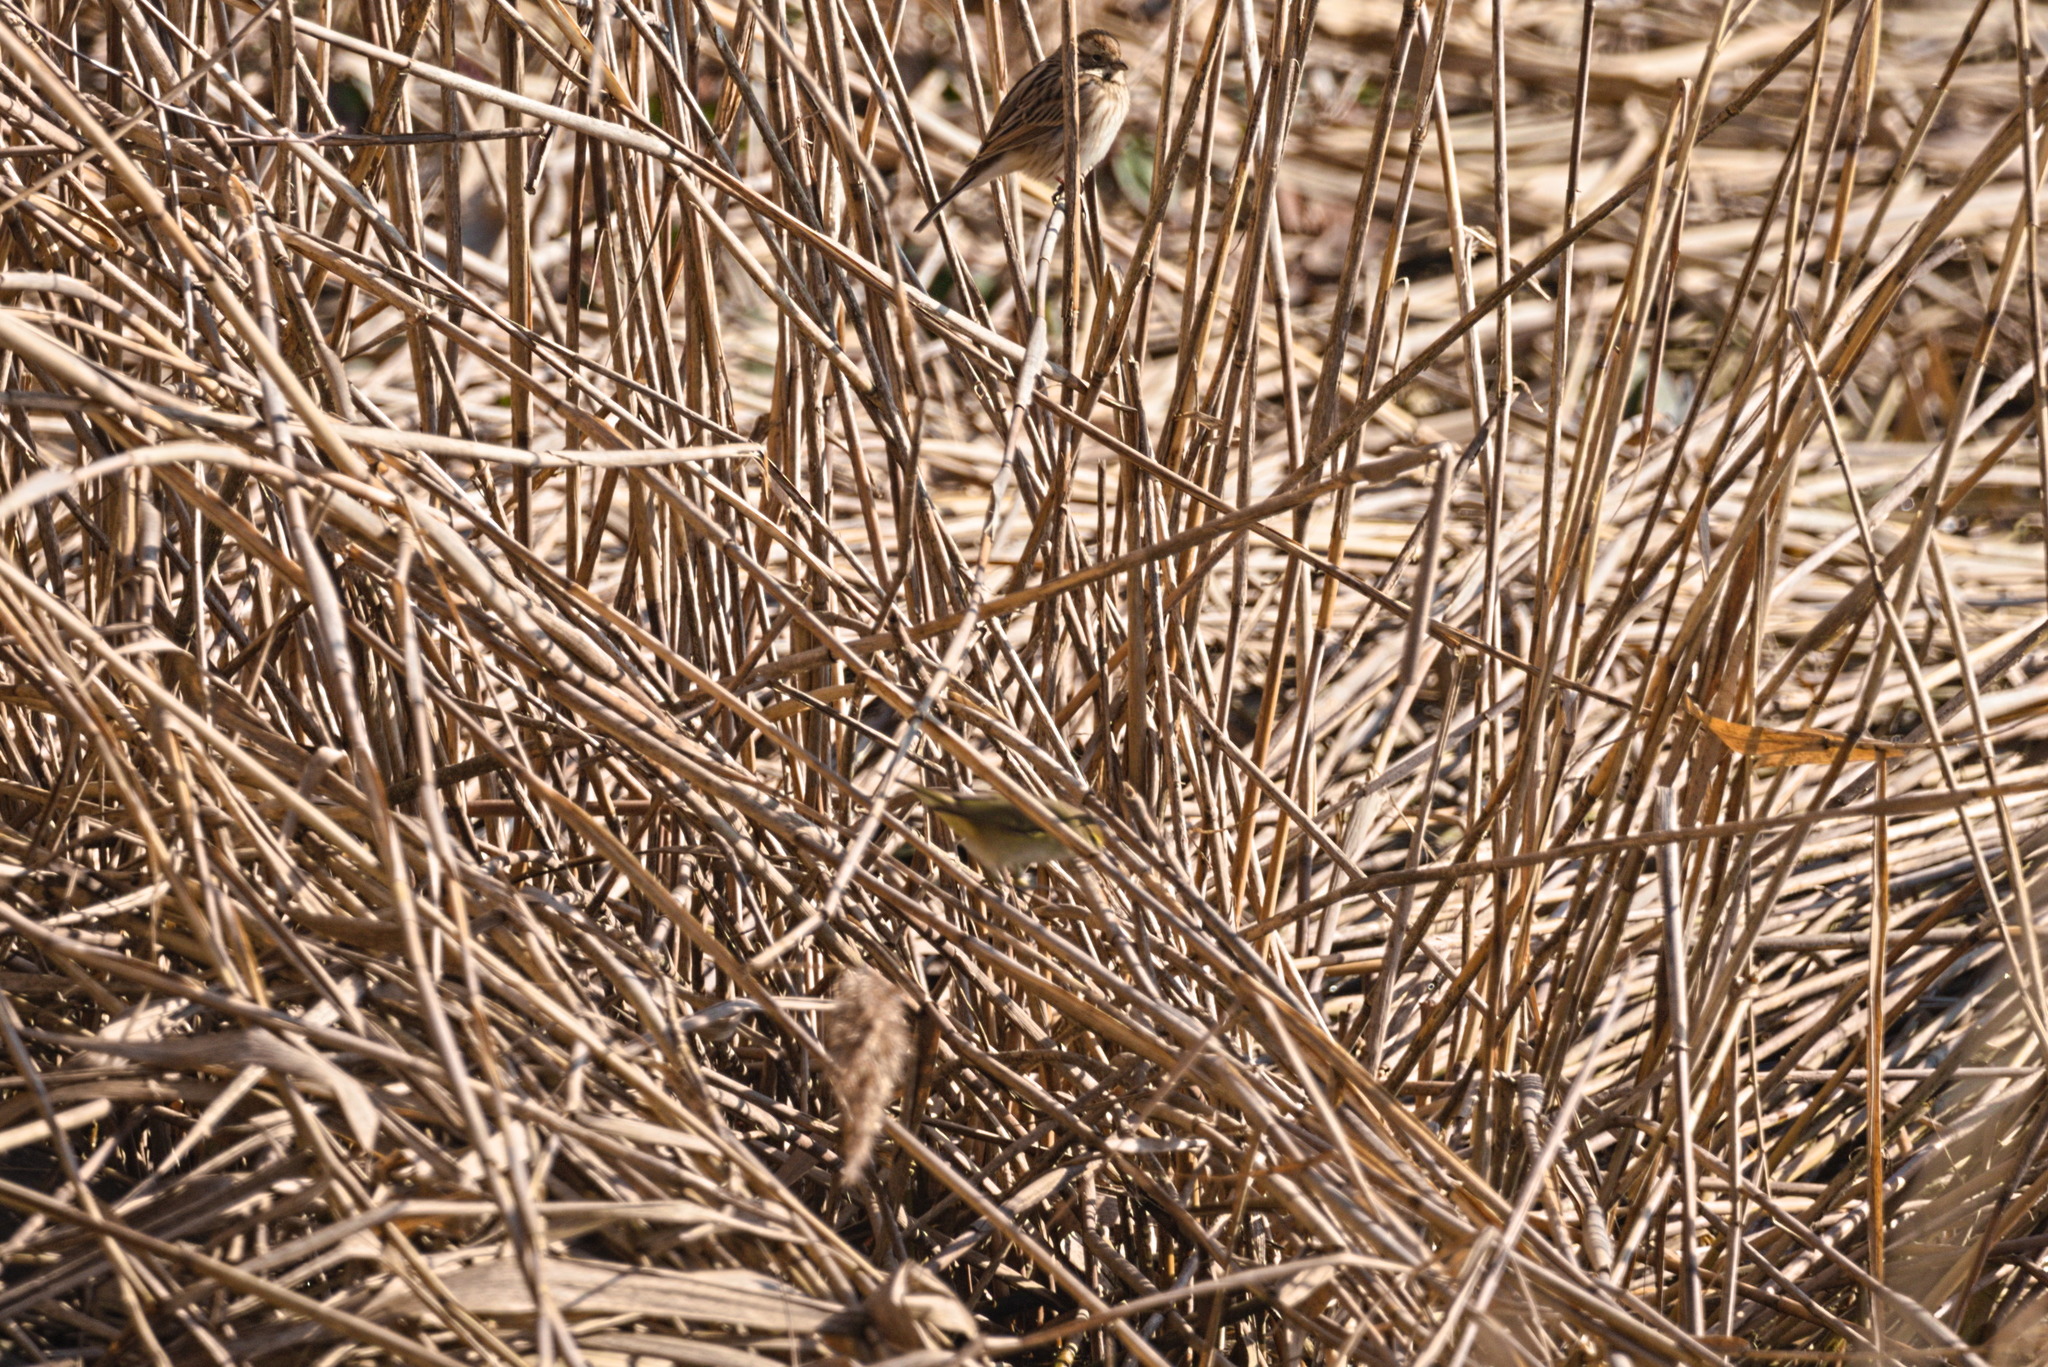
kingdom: Animalia
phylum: Chordata
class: Aves
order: Passeriformes
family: Phylloscopidae
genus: Phylloscopus
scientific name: Phylloscopus collybita
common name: Common chiffchaff
